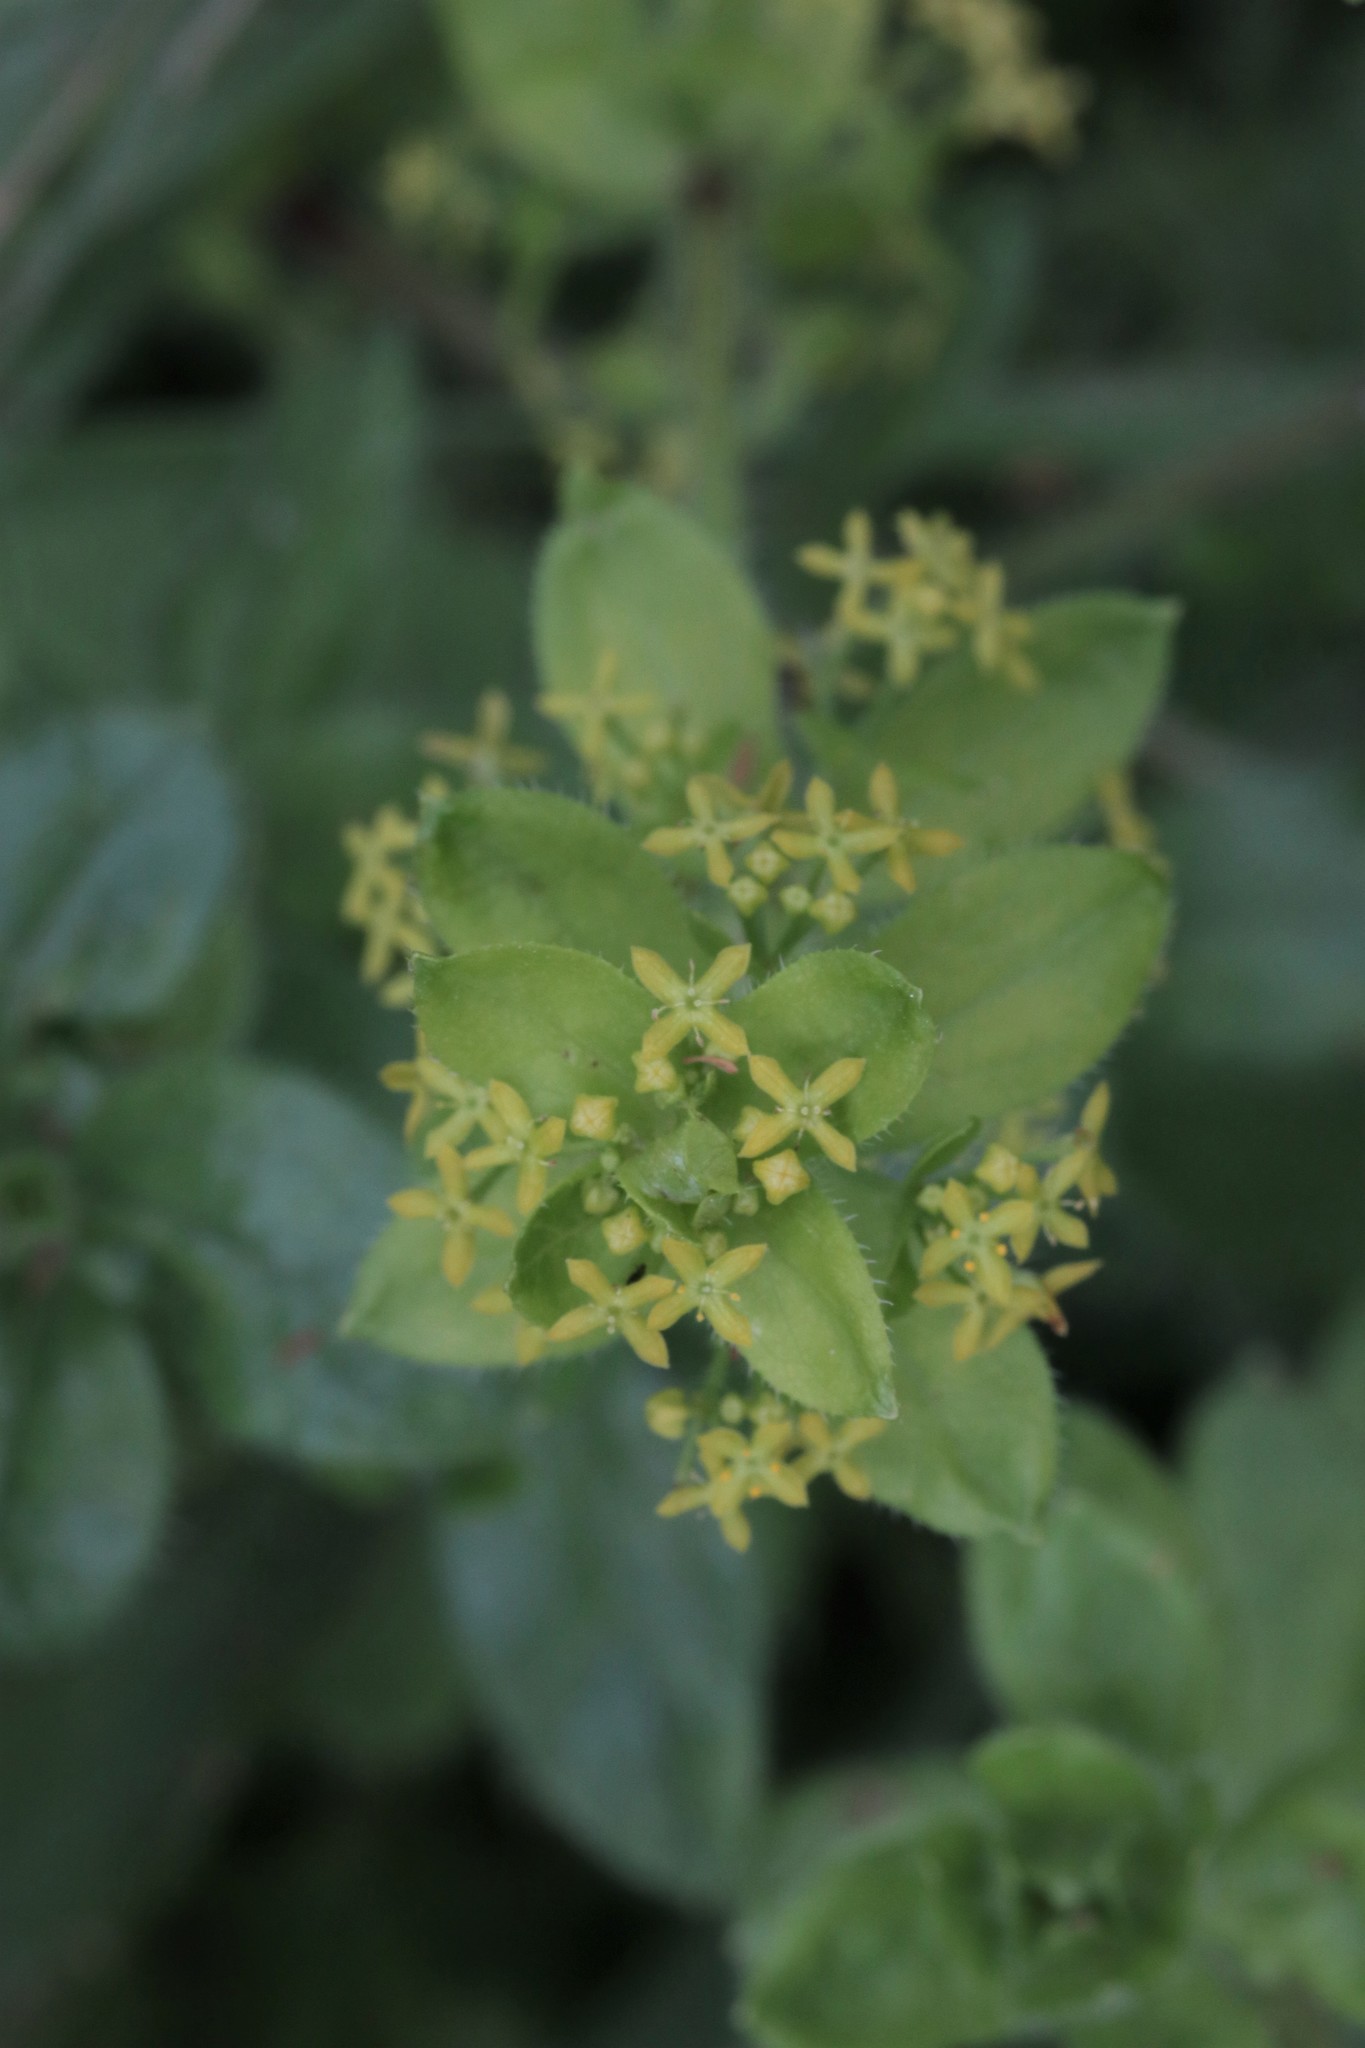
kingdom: Plantae
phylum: Tracheophyta
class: Magnoliopsida
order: Gentianales
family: Rubiaceae
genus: Cruciata
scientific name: Cruciata laevipes
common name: Crosswort
